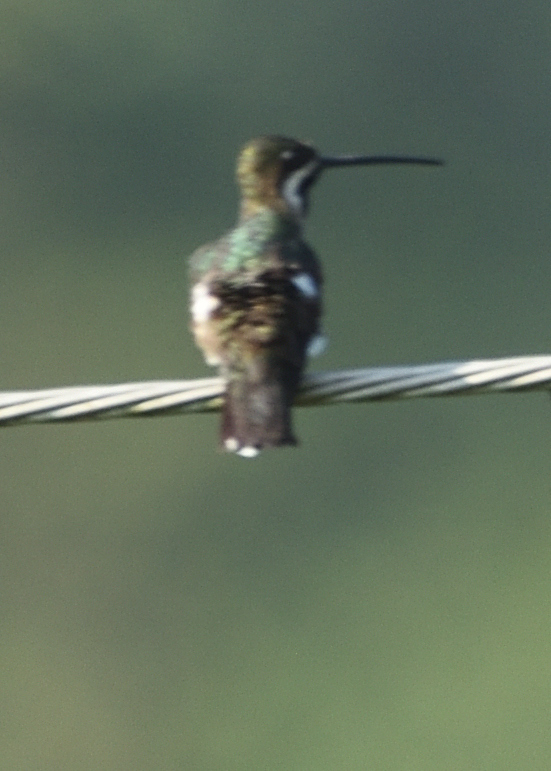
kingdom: Animalia
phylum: Chordata
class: Aves
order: Apodiformes
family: Trochilidae
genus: Heliomaster
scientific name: Heliomaster longirostris
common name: Long-billed starthroat
